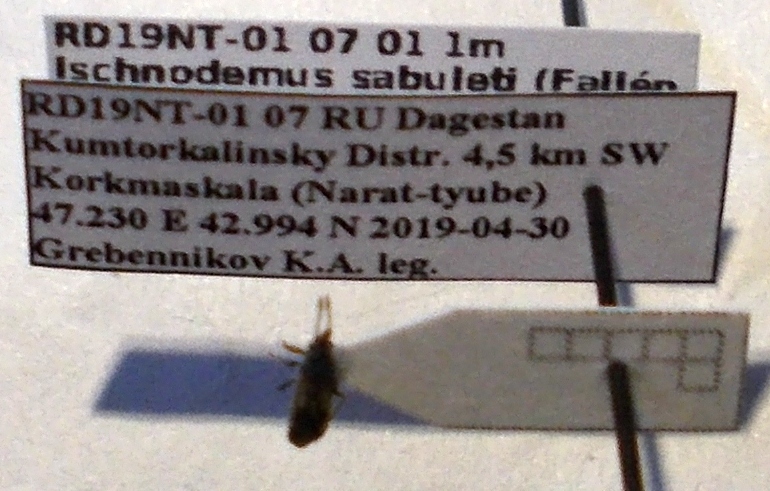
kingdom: Animalia
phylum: Arthropoda
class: Insecta
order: Hemiptera
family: Blissidae
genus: Ischnodemus
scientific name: Ischnodemus sabuleti
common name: European cinchbug
